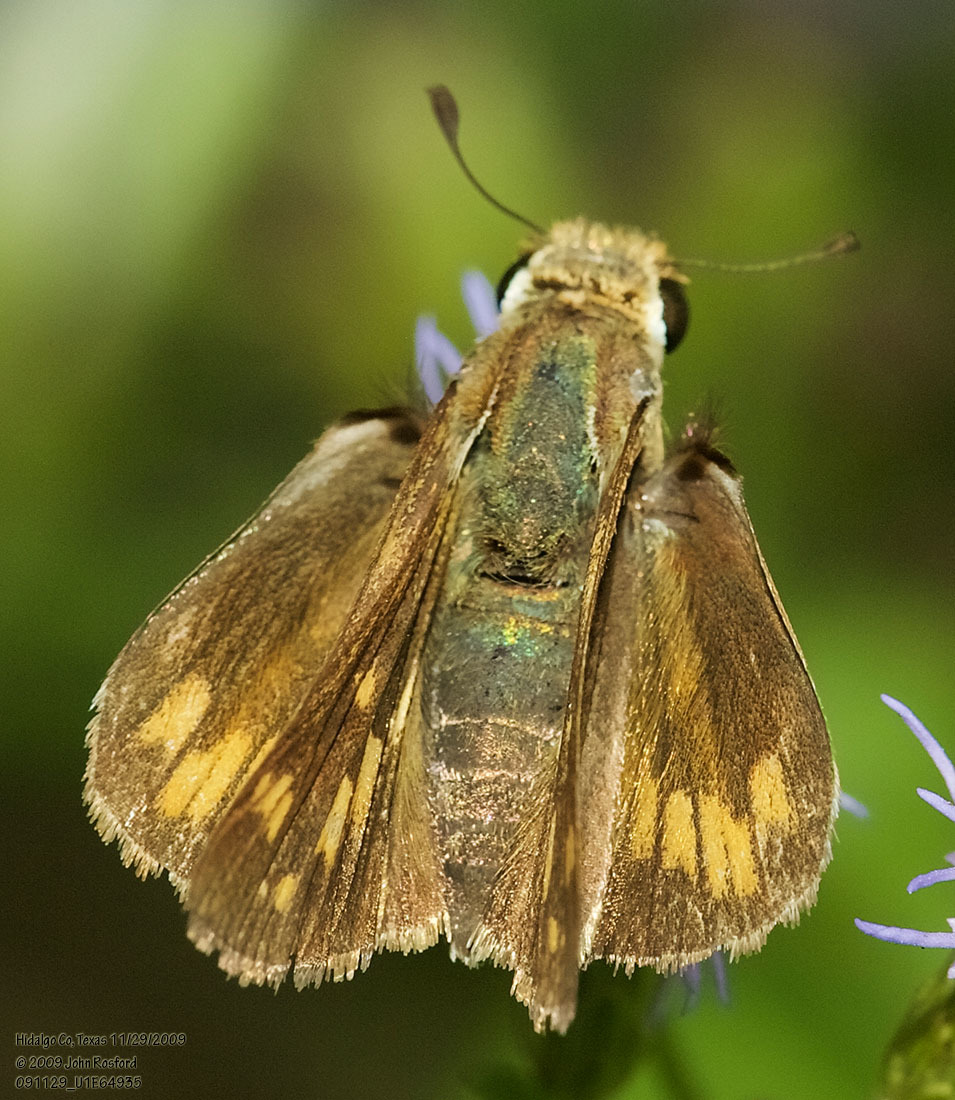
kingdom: Animalia
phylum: Arthropoda
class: Insecta
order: Lepidoptera
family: Hesperiidae
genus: Hylephila
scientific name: Hylephila phyleus
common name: Fiery skipper
